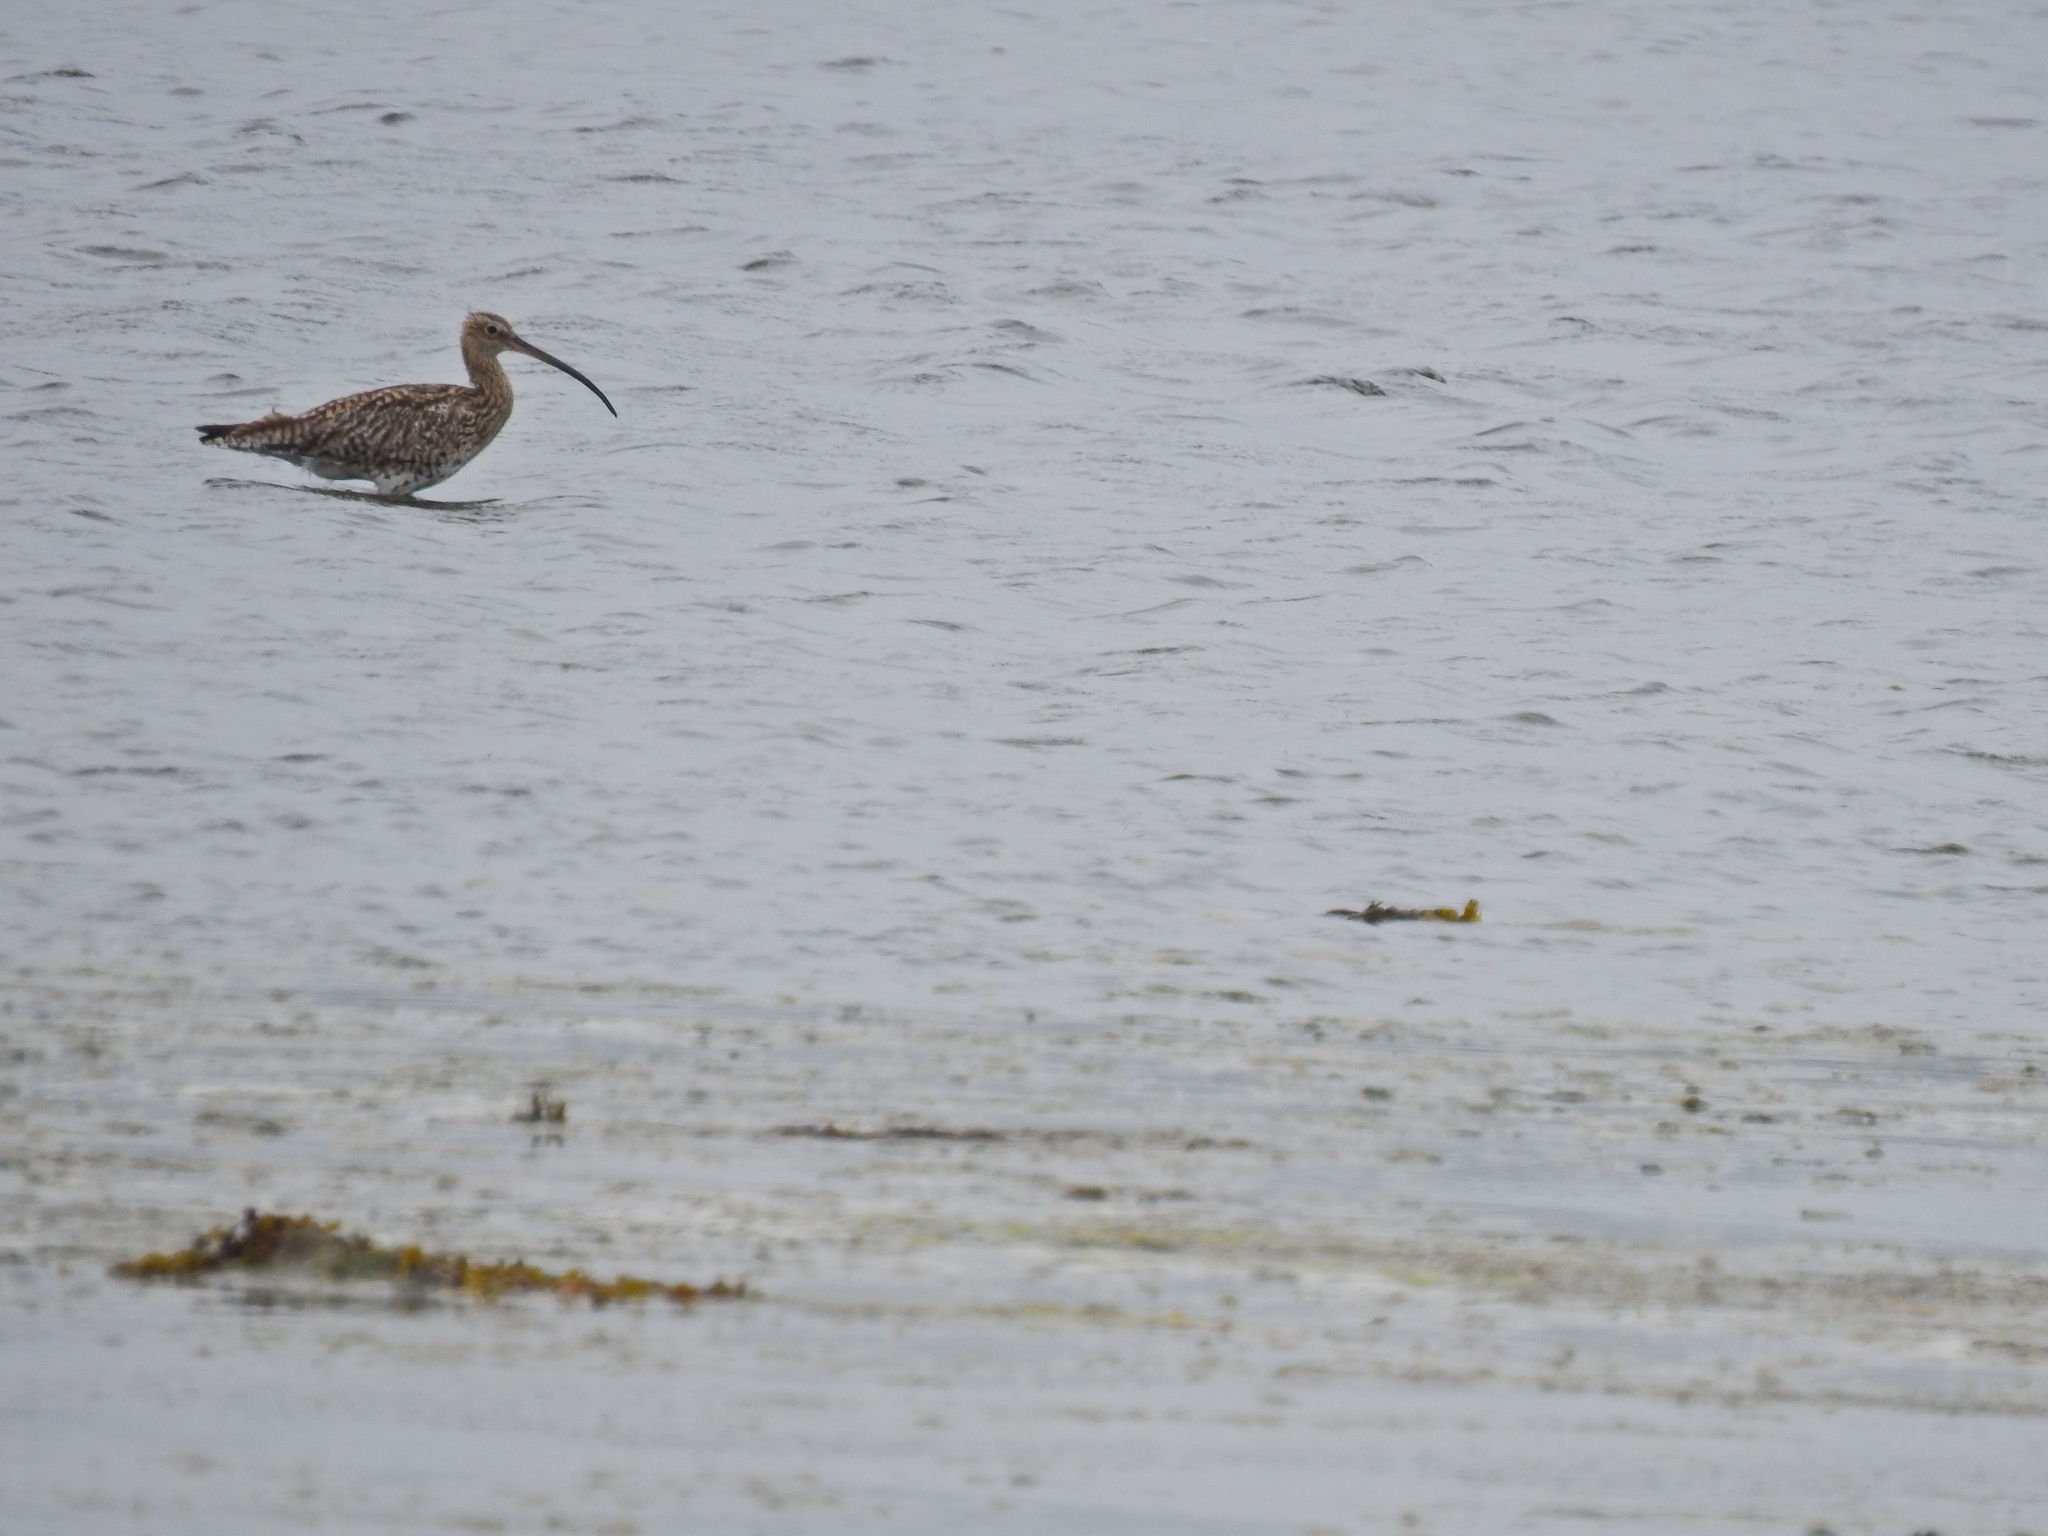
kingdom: Animalia
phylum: Chordata
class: Aves
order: Charadriiformes
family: Scolopacidae
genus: Numenius
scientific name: Numenius arquata
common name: Eurasian curlew
